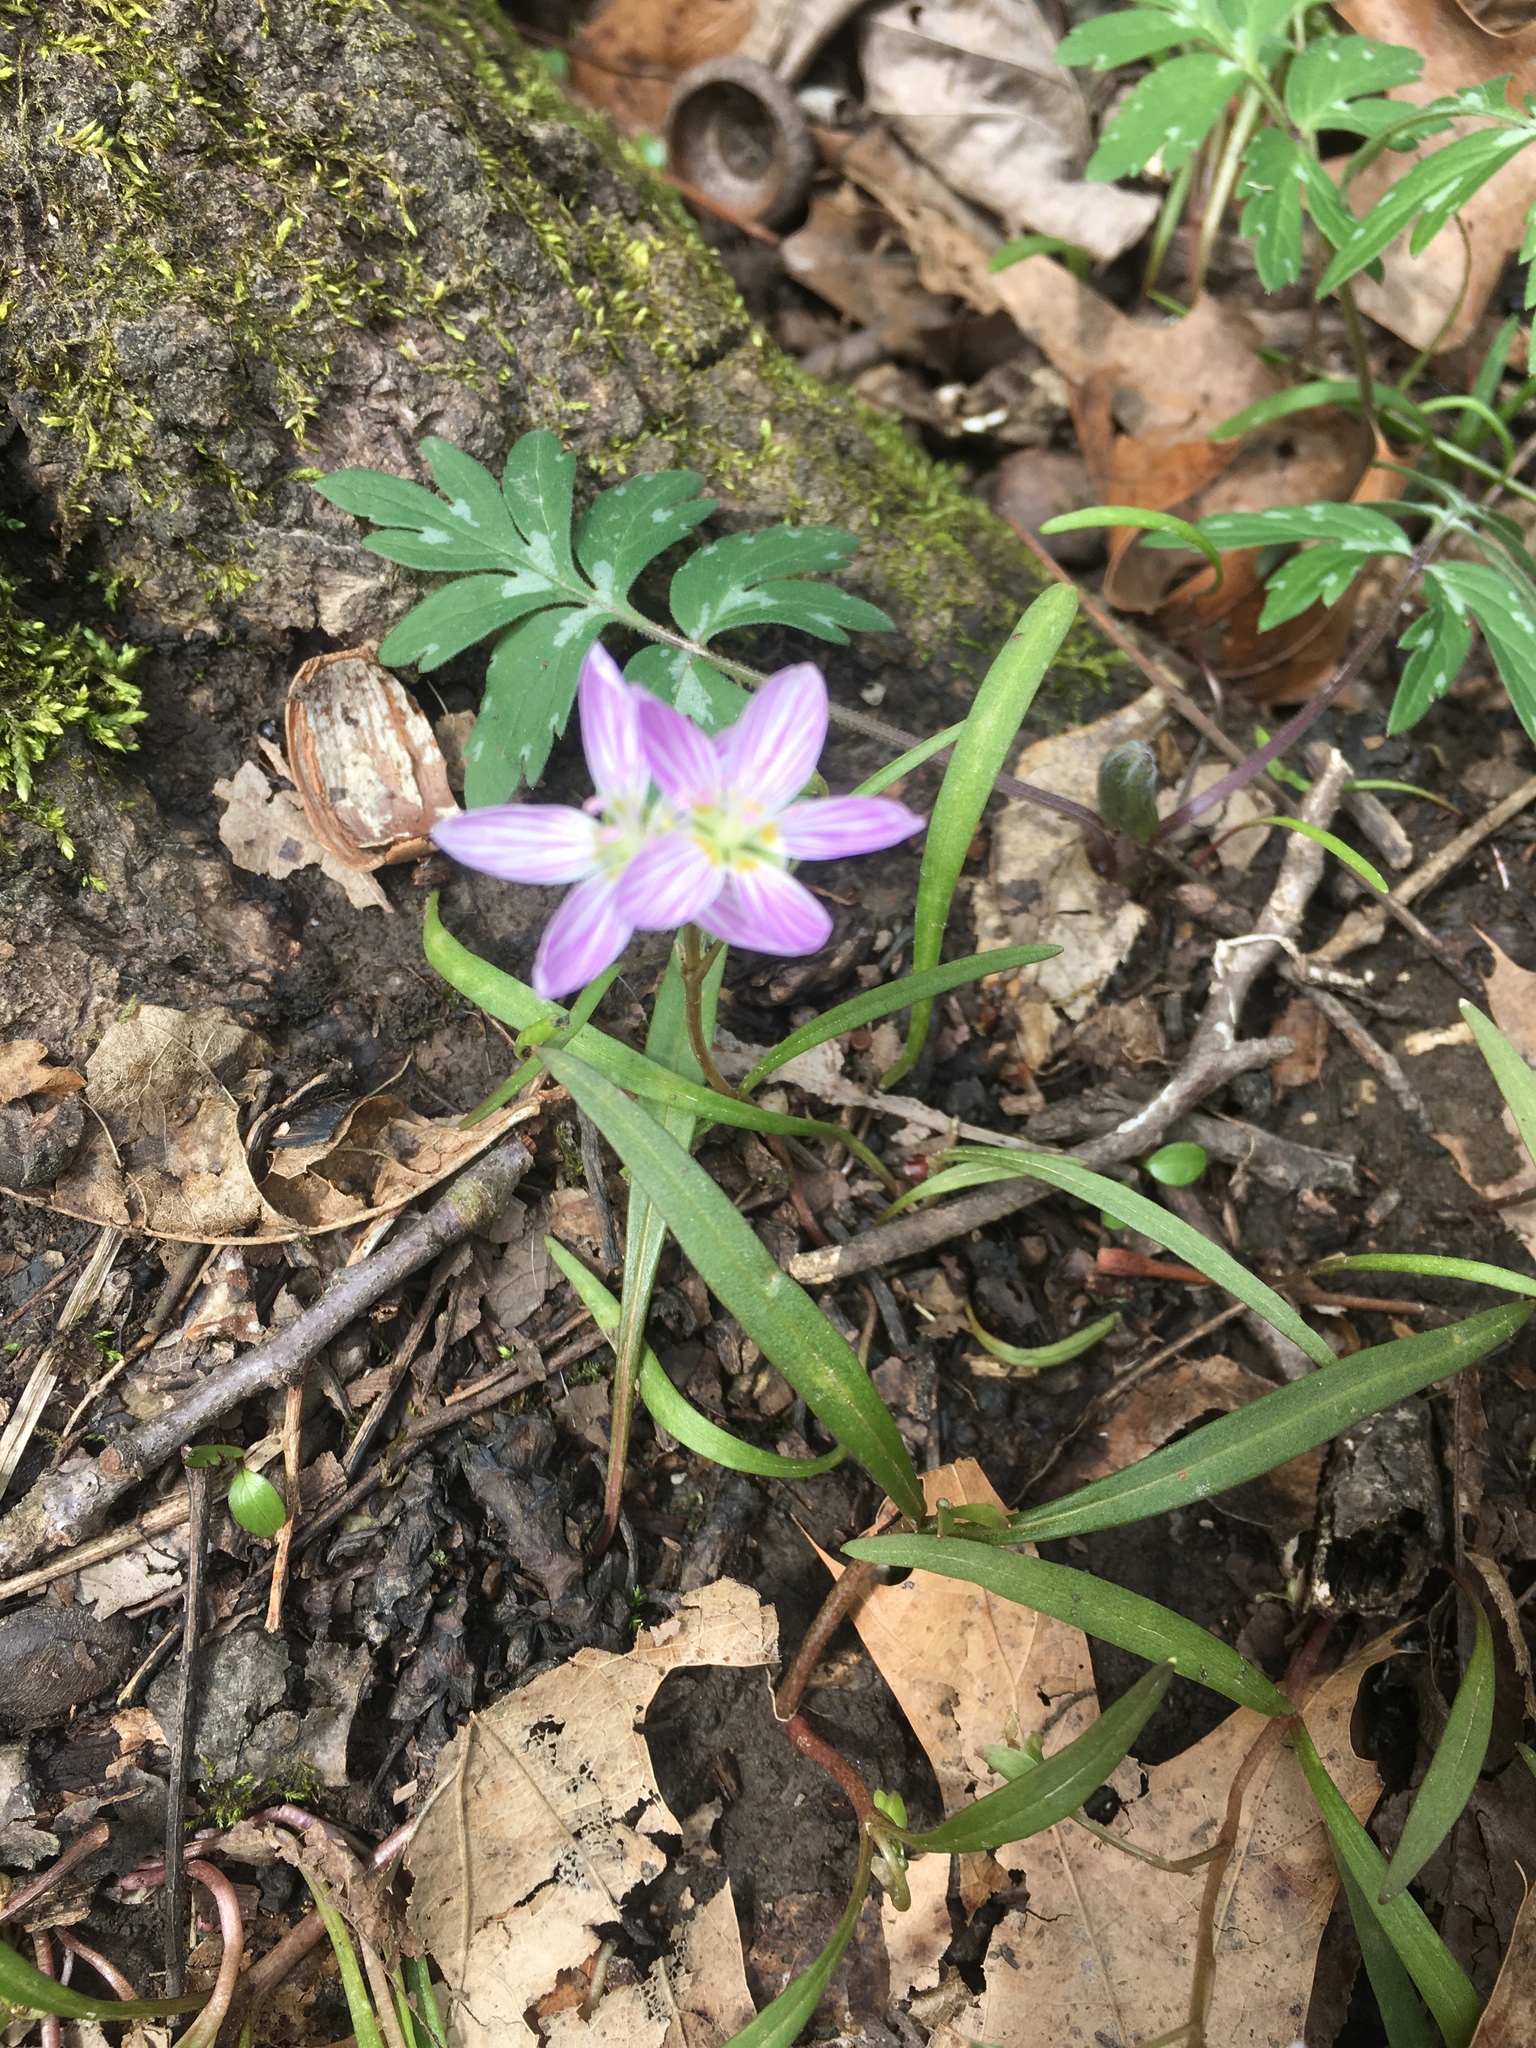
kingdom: Plantae
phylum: Tracheophyta
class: Magnoliopsida
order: Caryophyllales
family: Montiaceae
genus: Claytonia
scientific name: Claytonia virginica
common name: Virginia springbeauty
